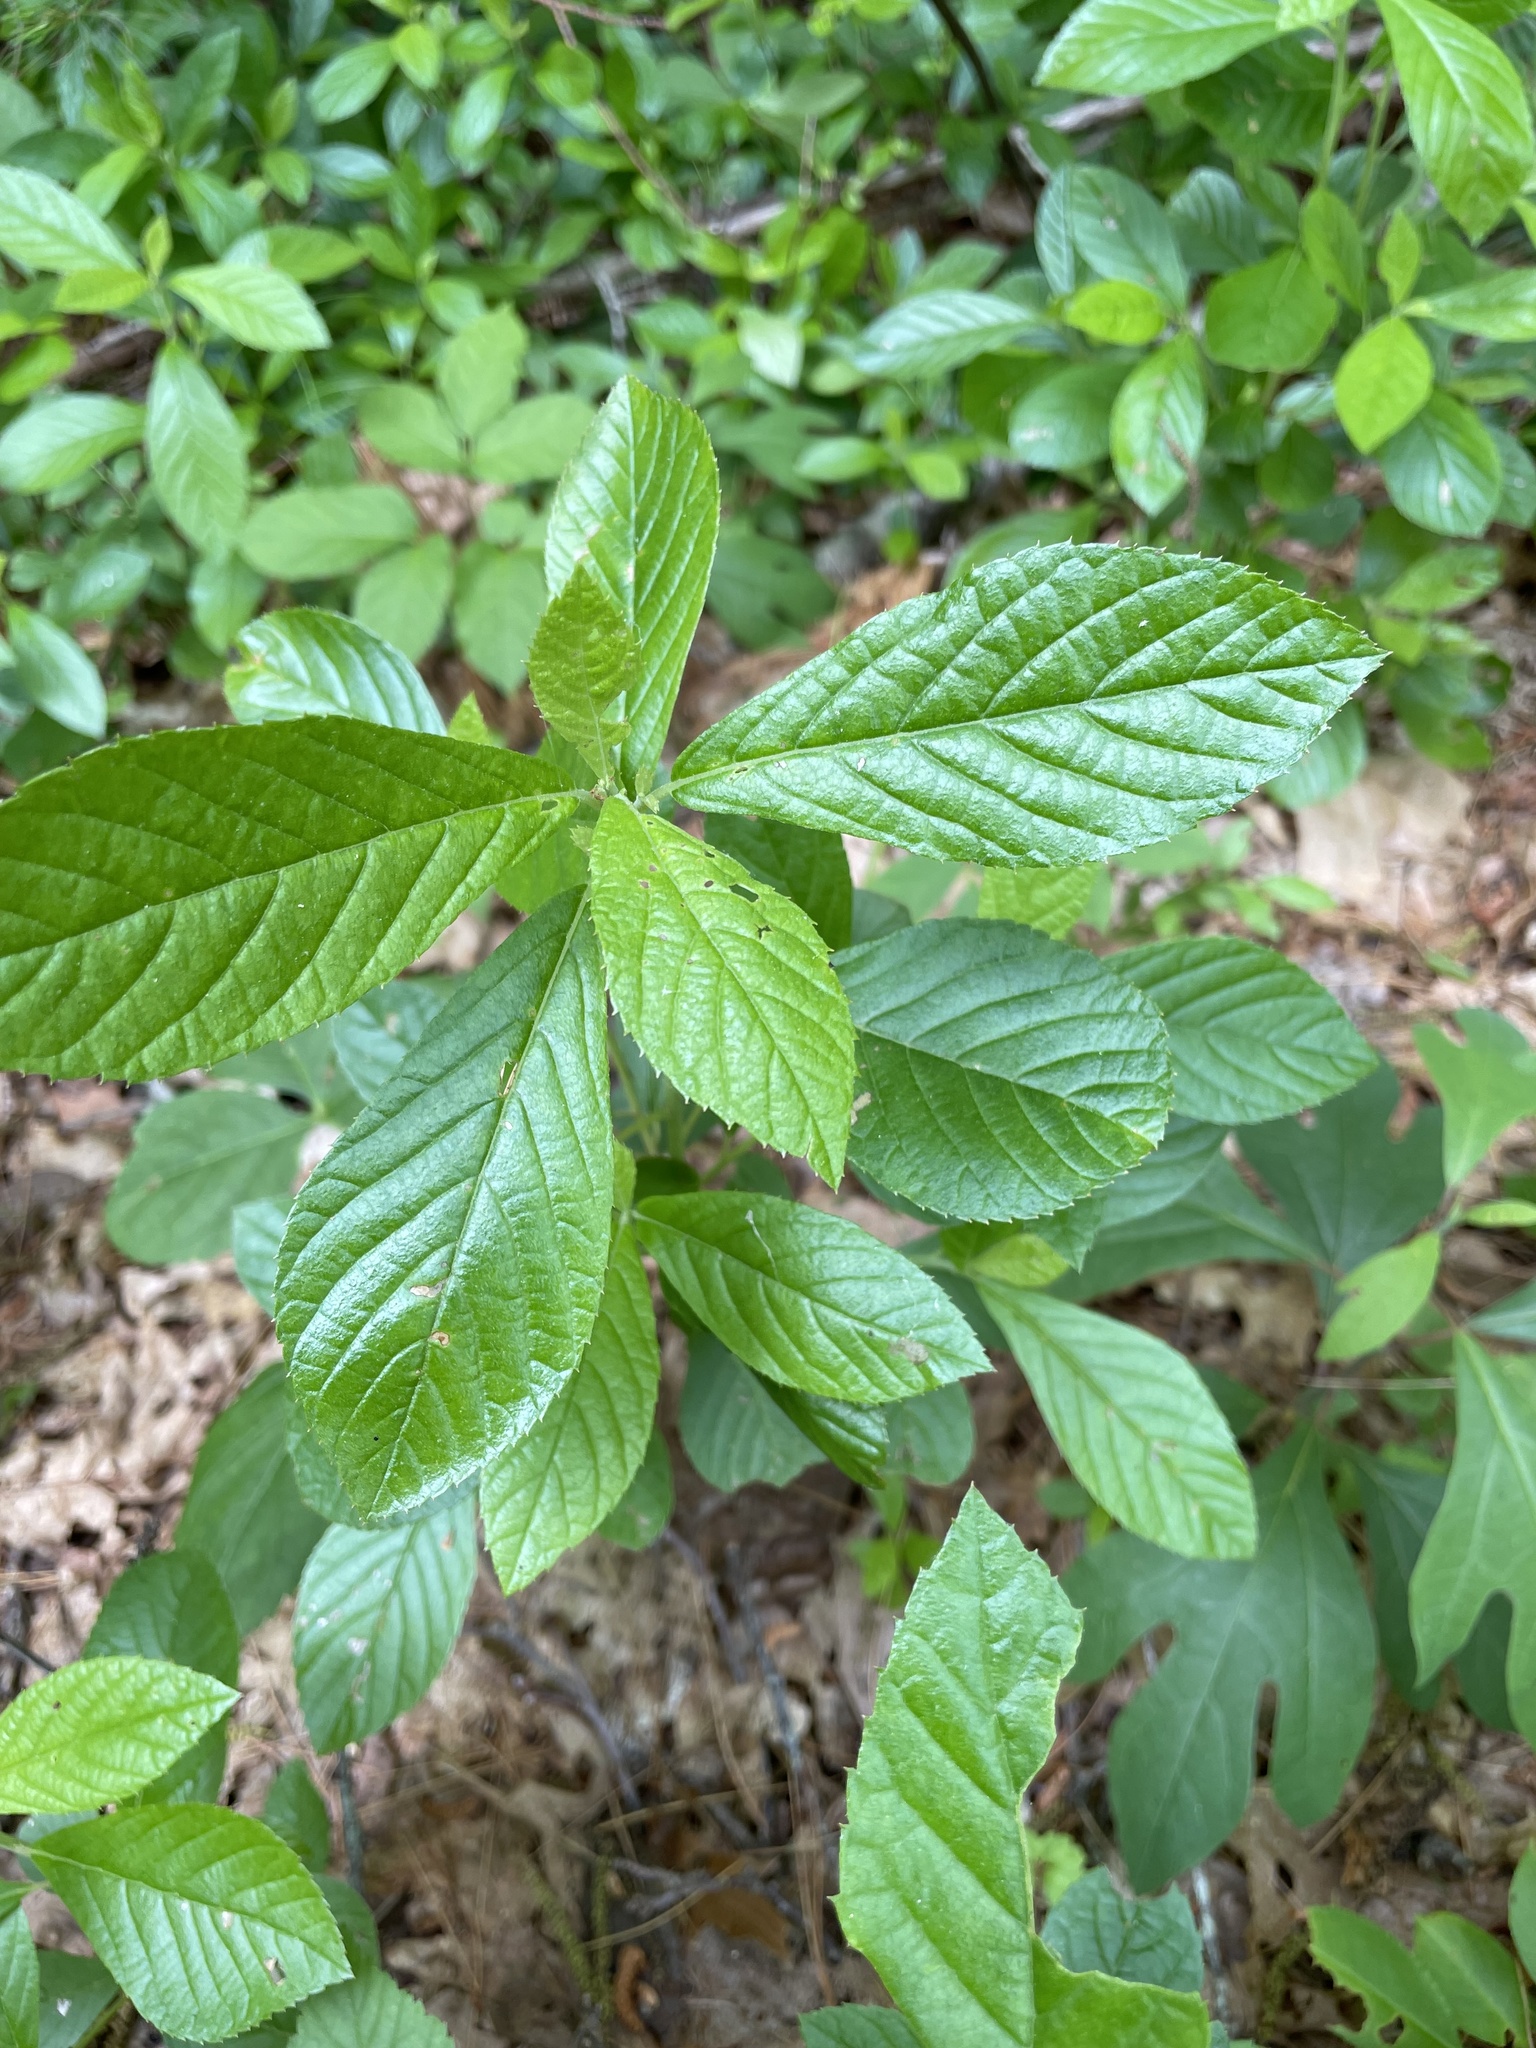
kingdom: Plantae
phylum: Tracheophyta
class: Magnoliopsida
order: Ericales
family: Clethraceae
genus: Clethra
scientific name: Clethra alnifolia
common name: Sweet pepperbush
